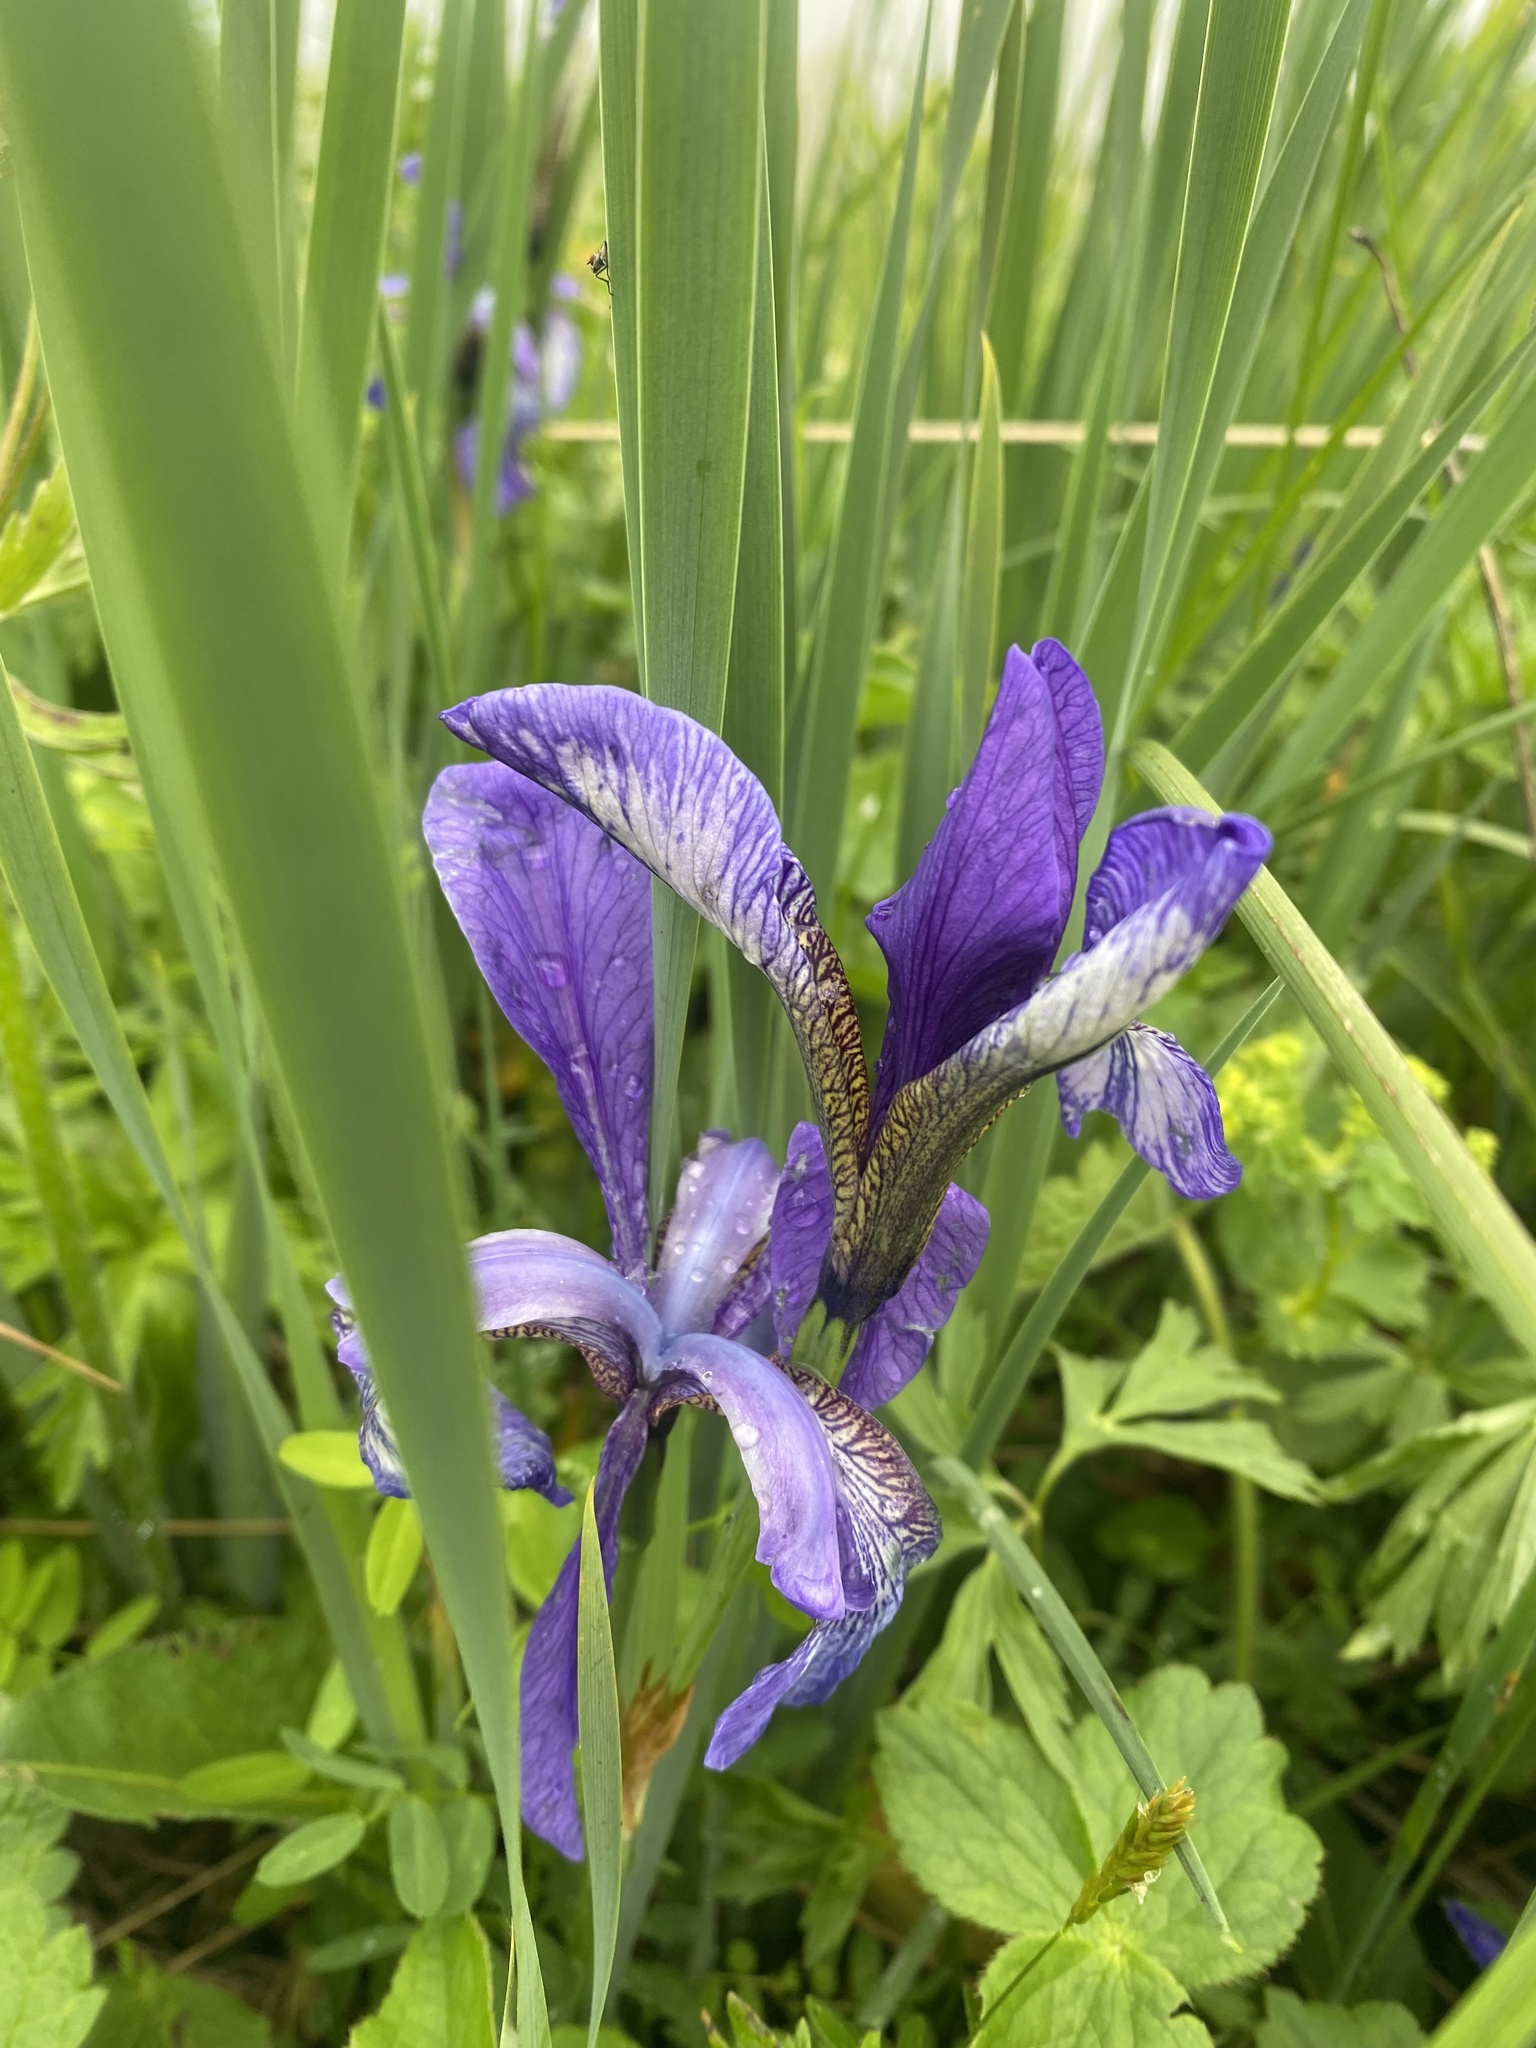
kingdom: Plantae
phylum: Tracheophyta
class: Liliopsida
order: Asparagales
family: Iridaceae
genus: Iris
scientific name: Iris sibirica
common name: Siberian iris
